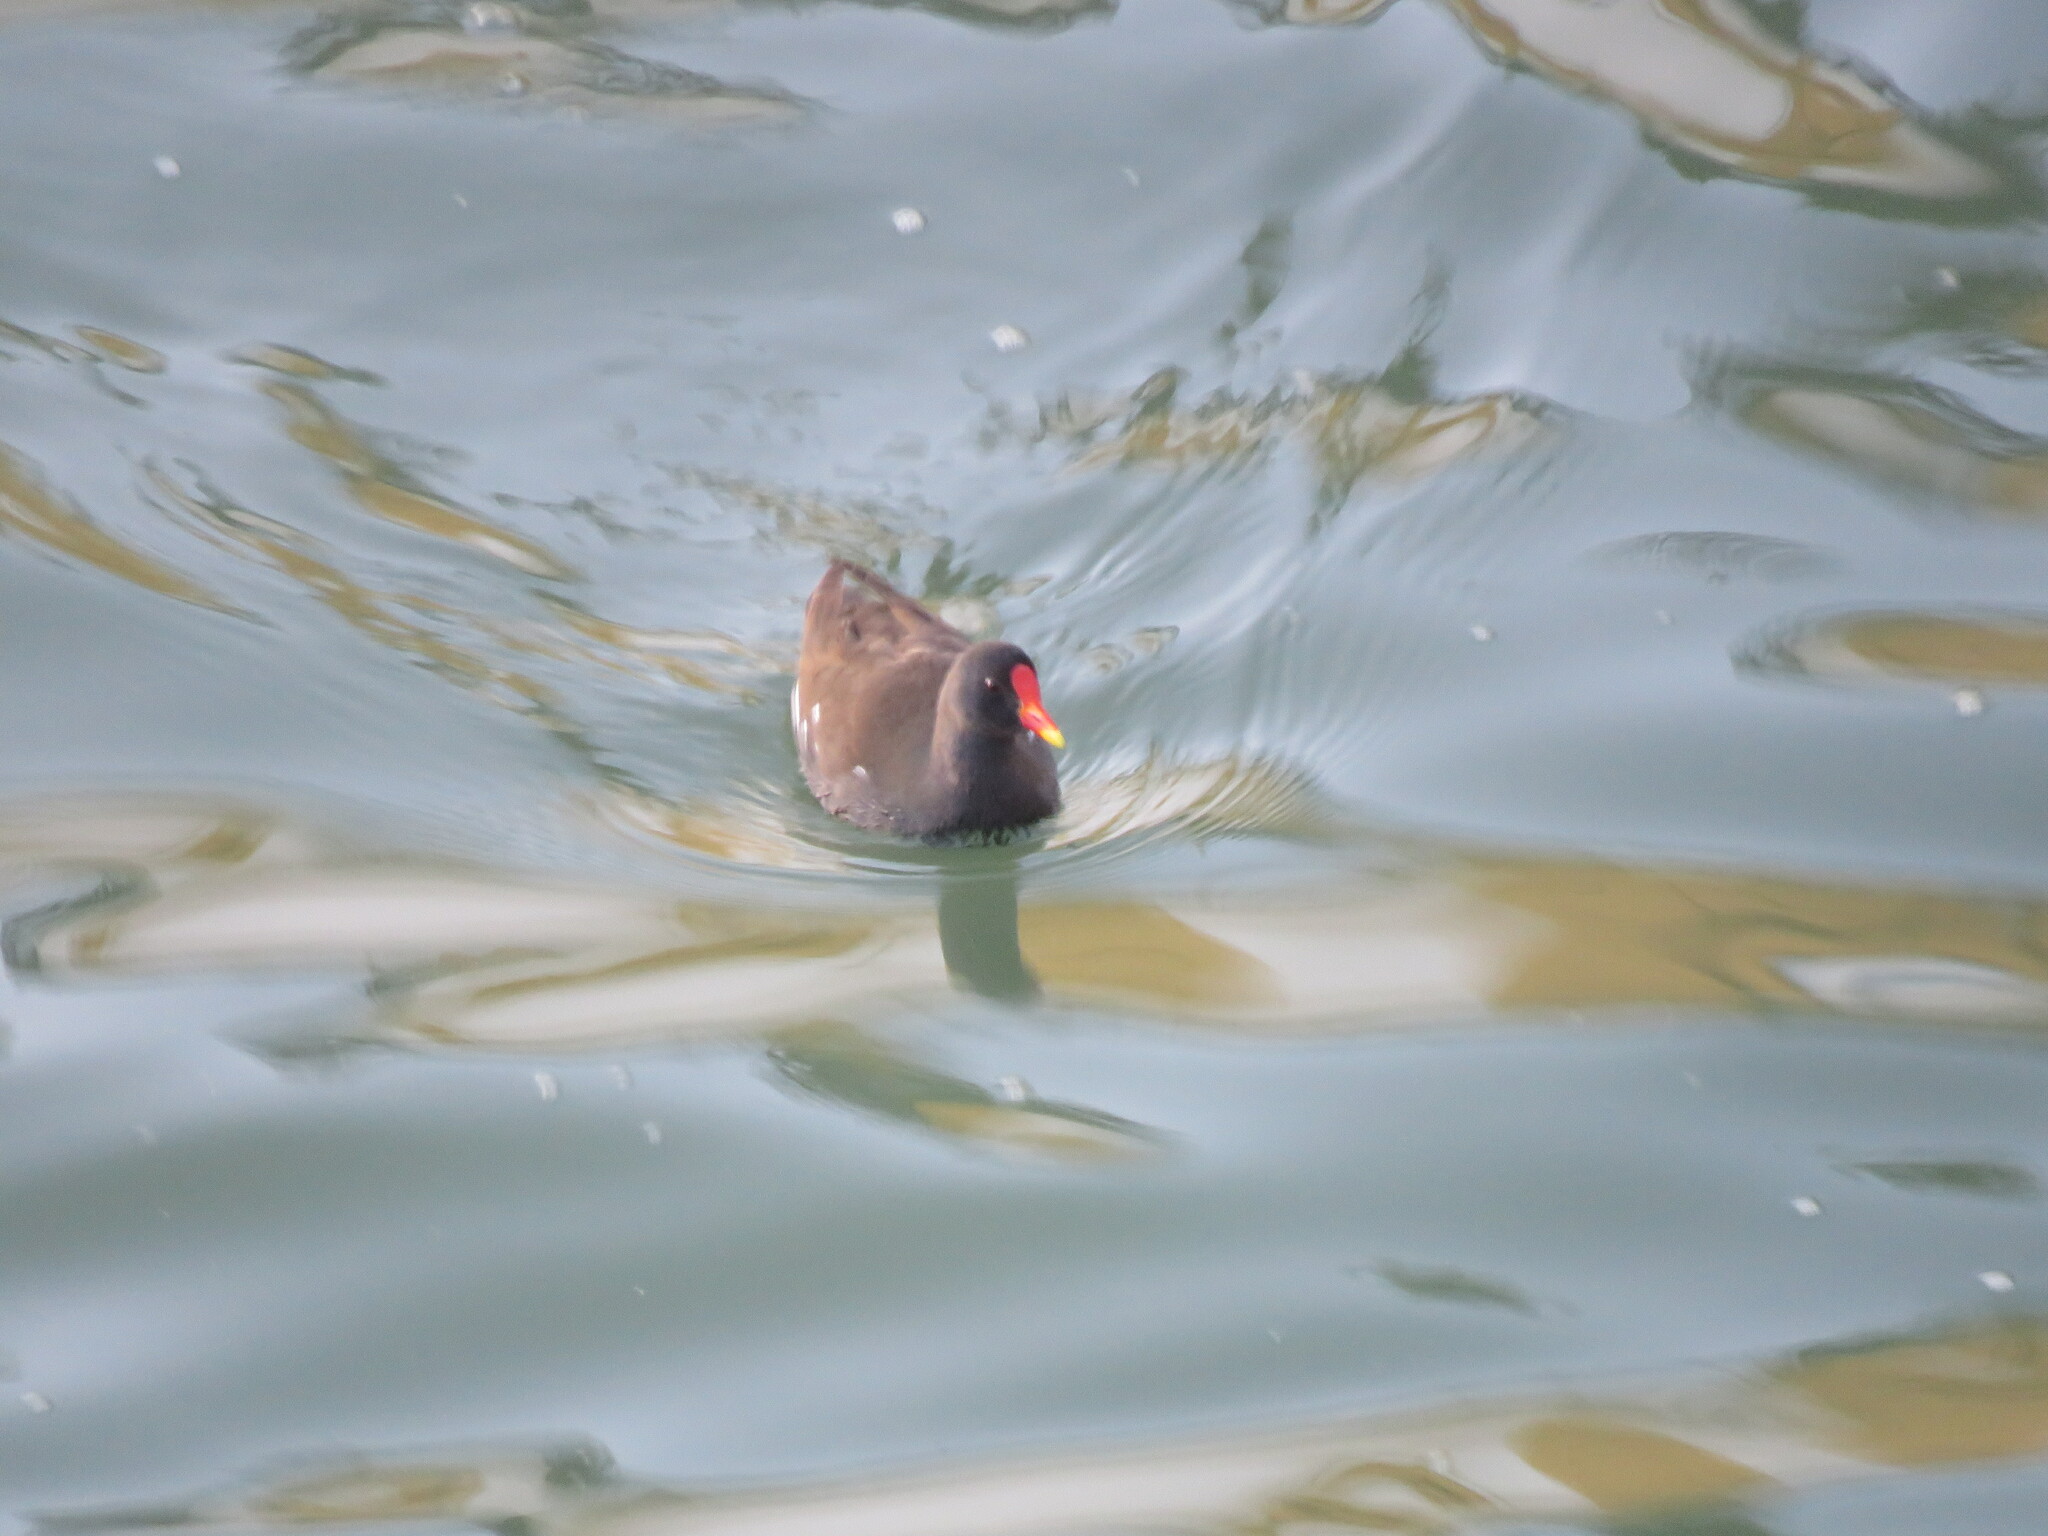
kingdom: Animalia
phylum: Chordata
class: Aves
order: Gruiformes
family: Rallidae
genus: Gallinula
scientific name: Gallinula chloropus
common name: Common moorhen
